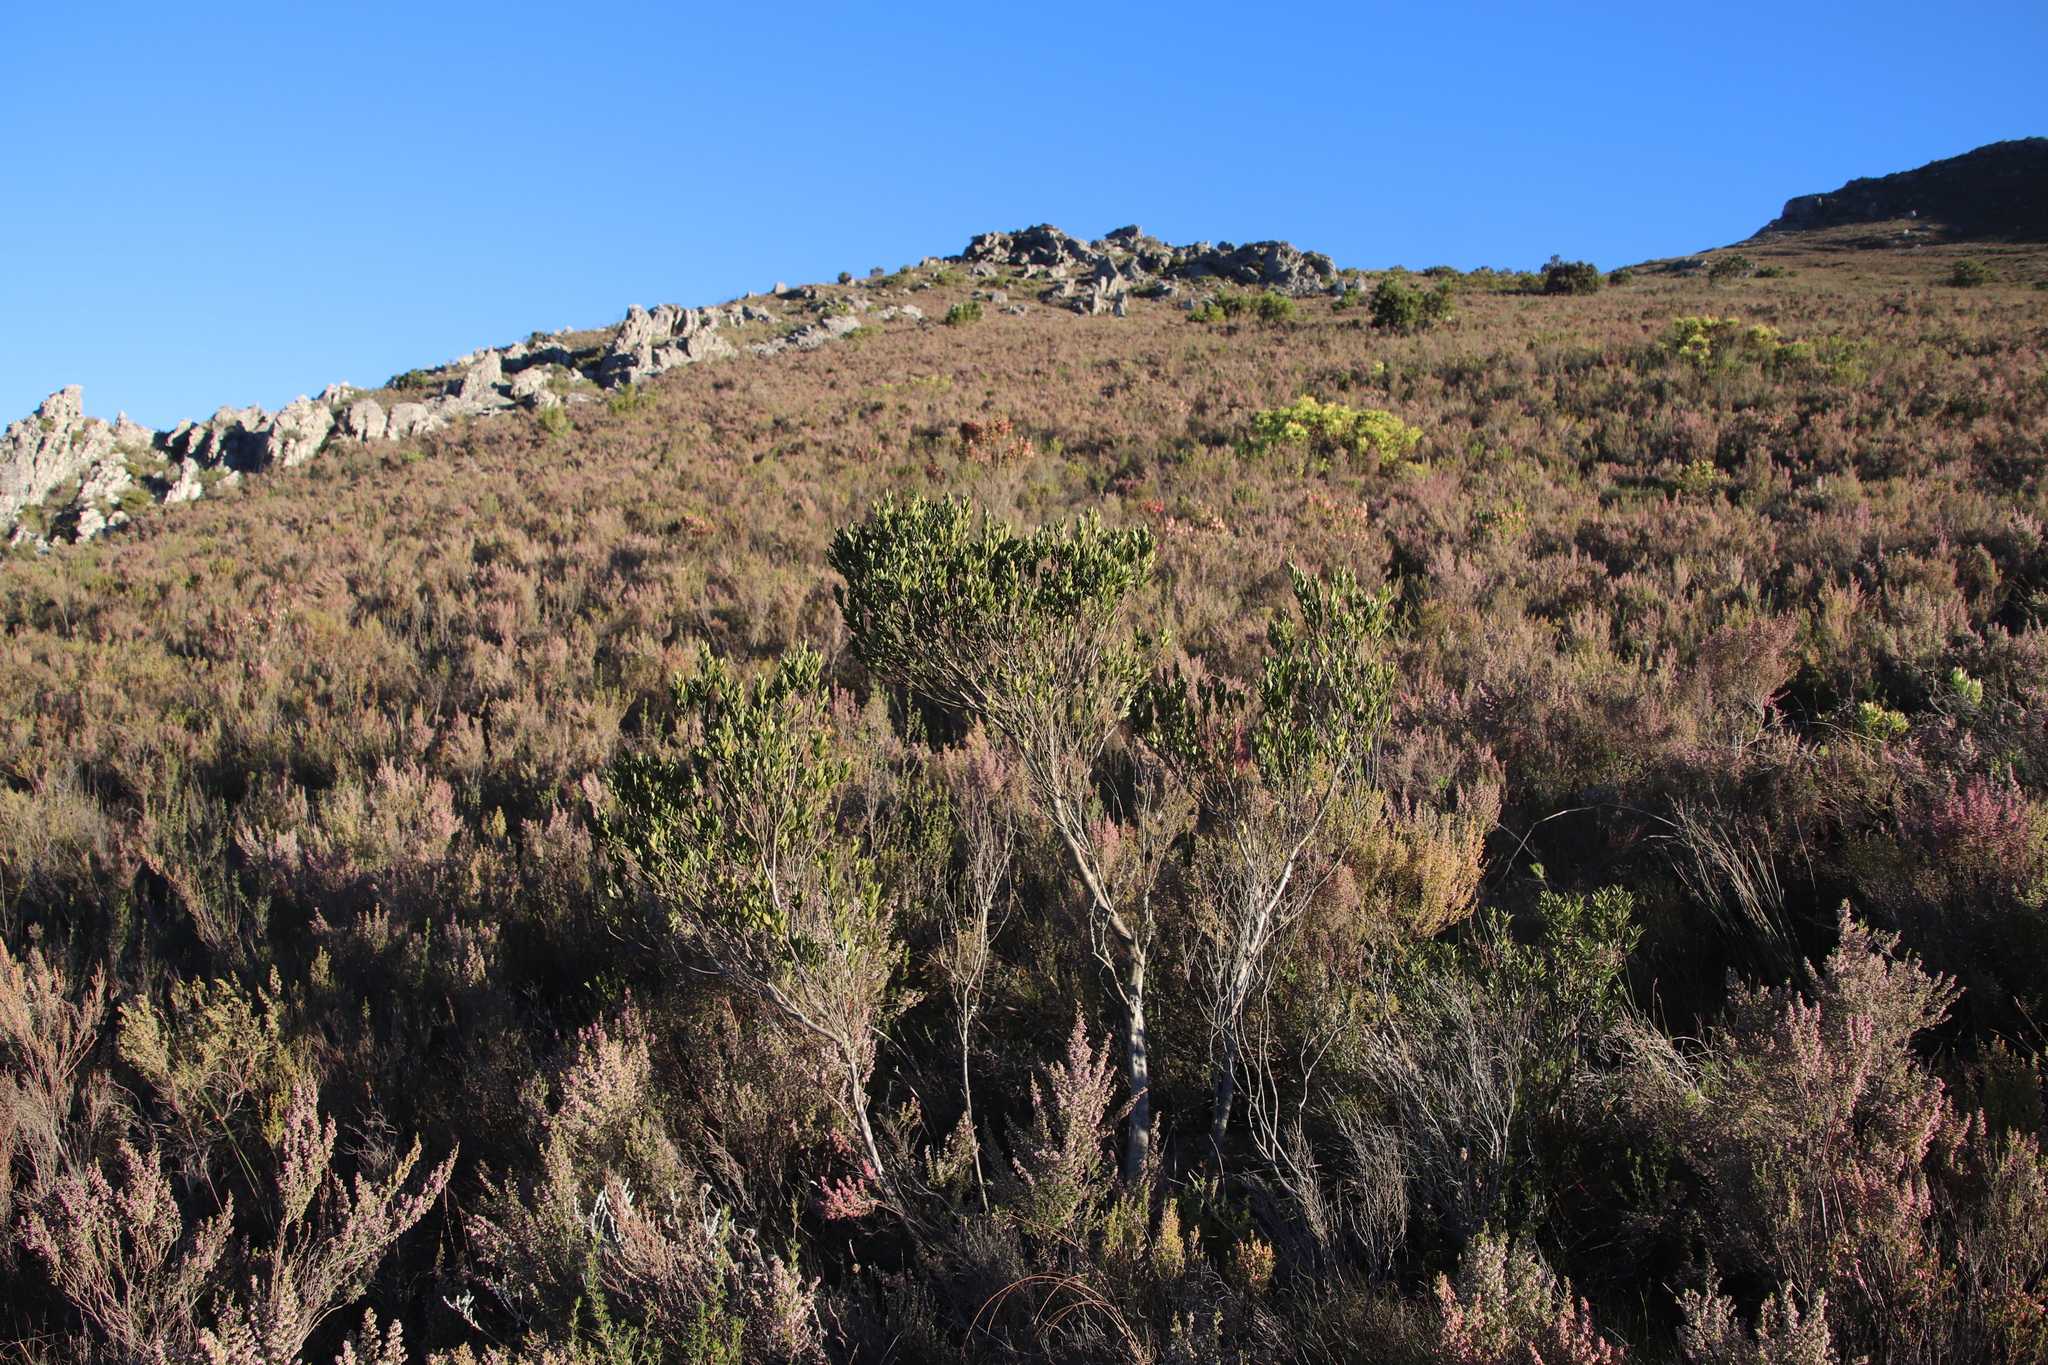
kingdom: Plantae
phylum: Tracheophyta
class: Magnoliopsida
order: Ericales
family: Ebenaceae
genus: Diospyros
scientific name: Diospyros glabra
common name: Fynbos star apple
